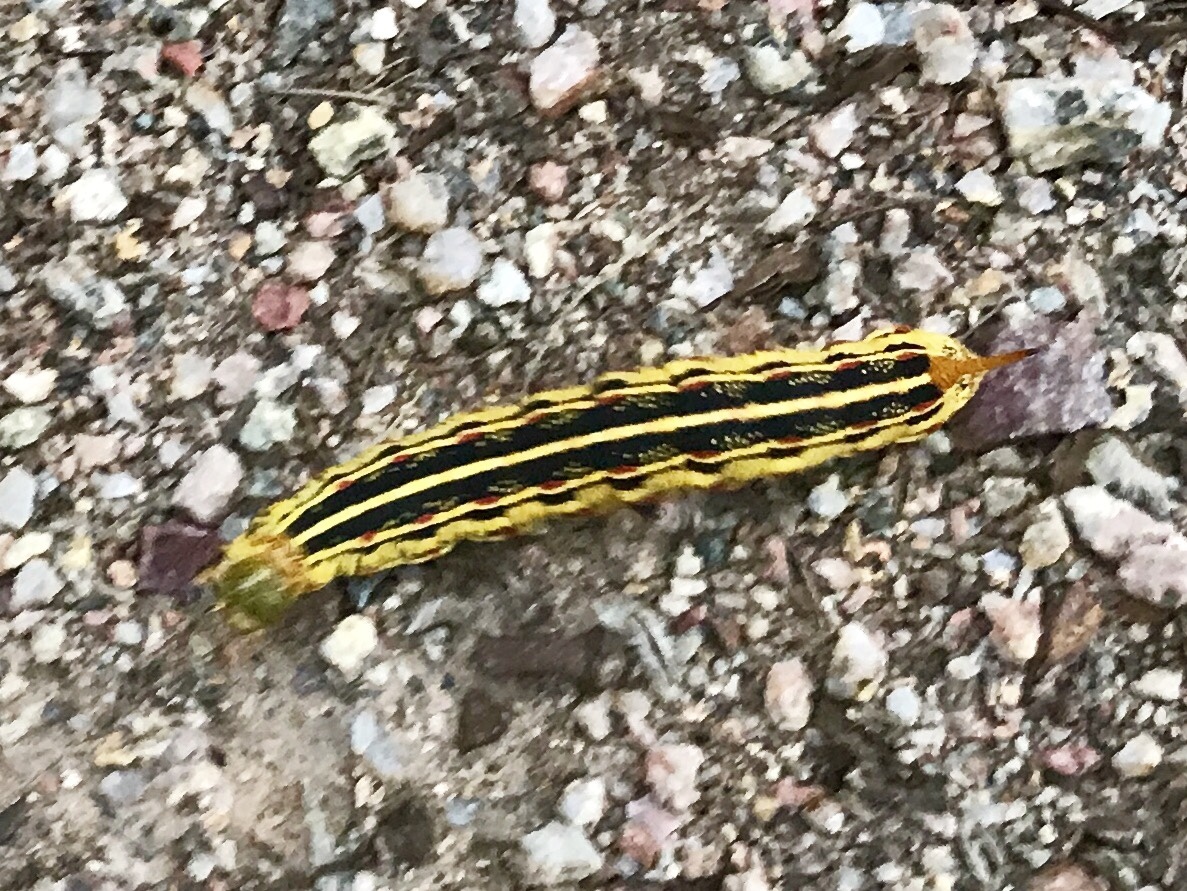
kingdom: Animalia
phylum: Arthropoda
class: Insecta
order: Lepidoptera
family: Sphingidae
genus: Hyles
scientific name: Hyles lineata
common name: White-lined sphinx
